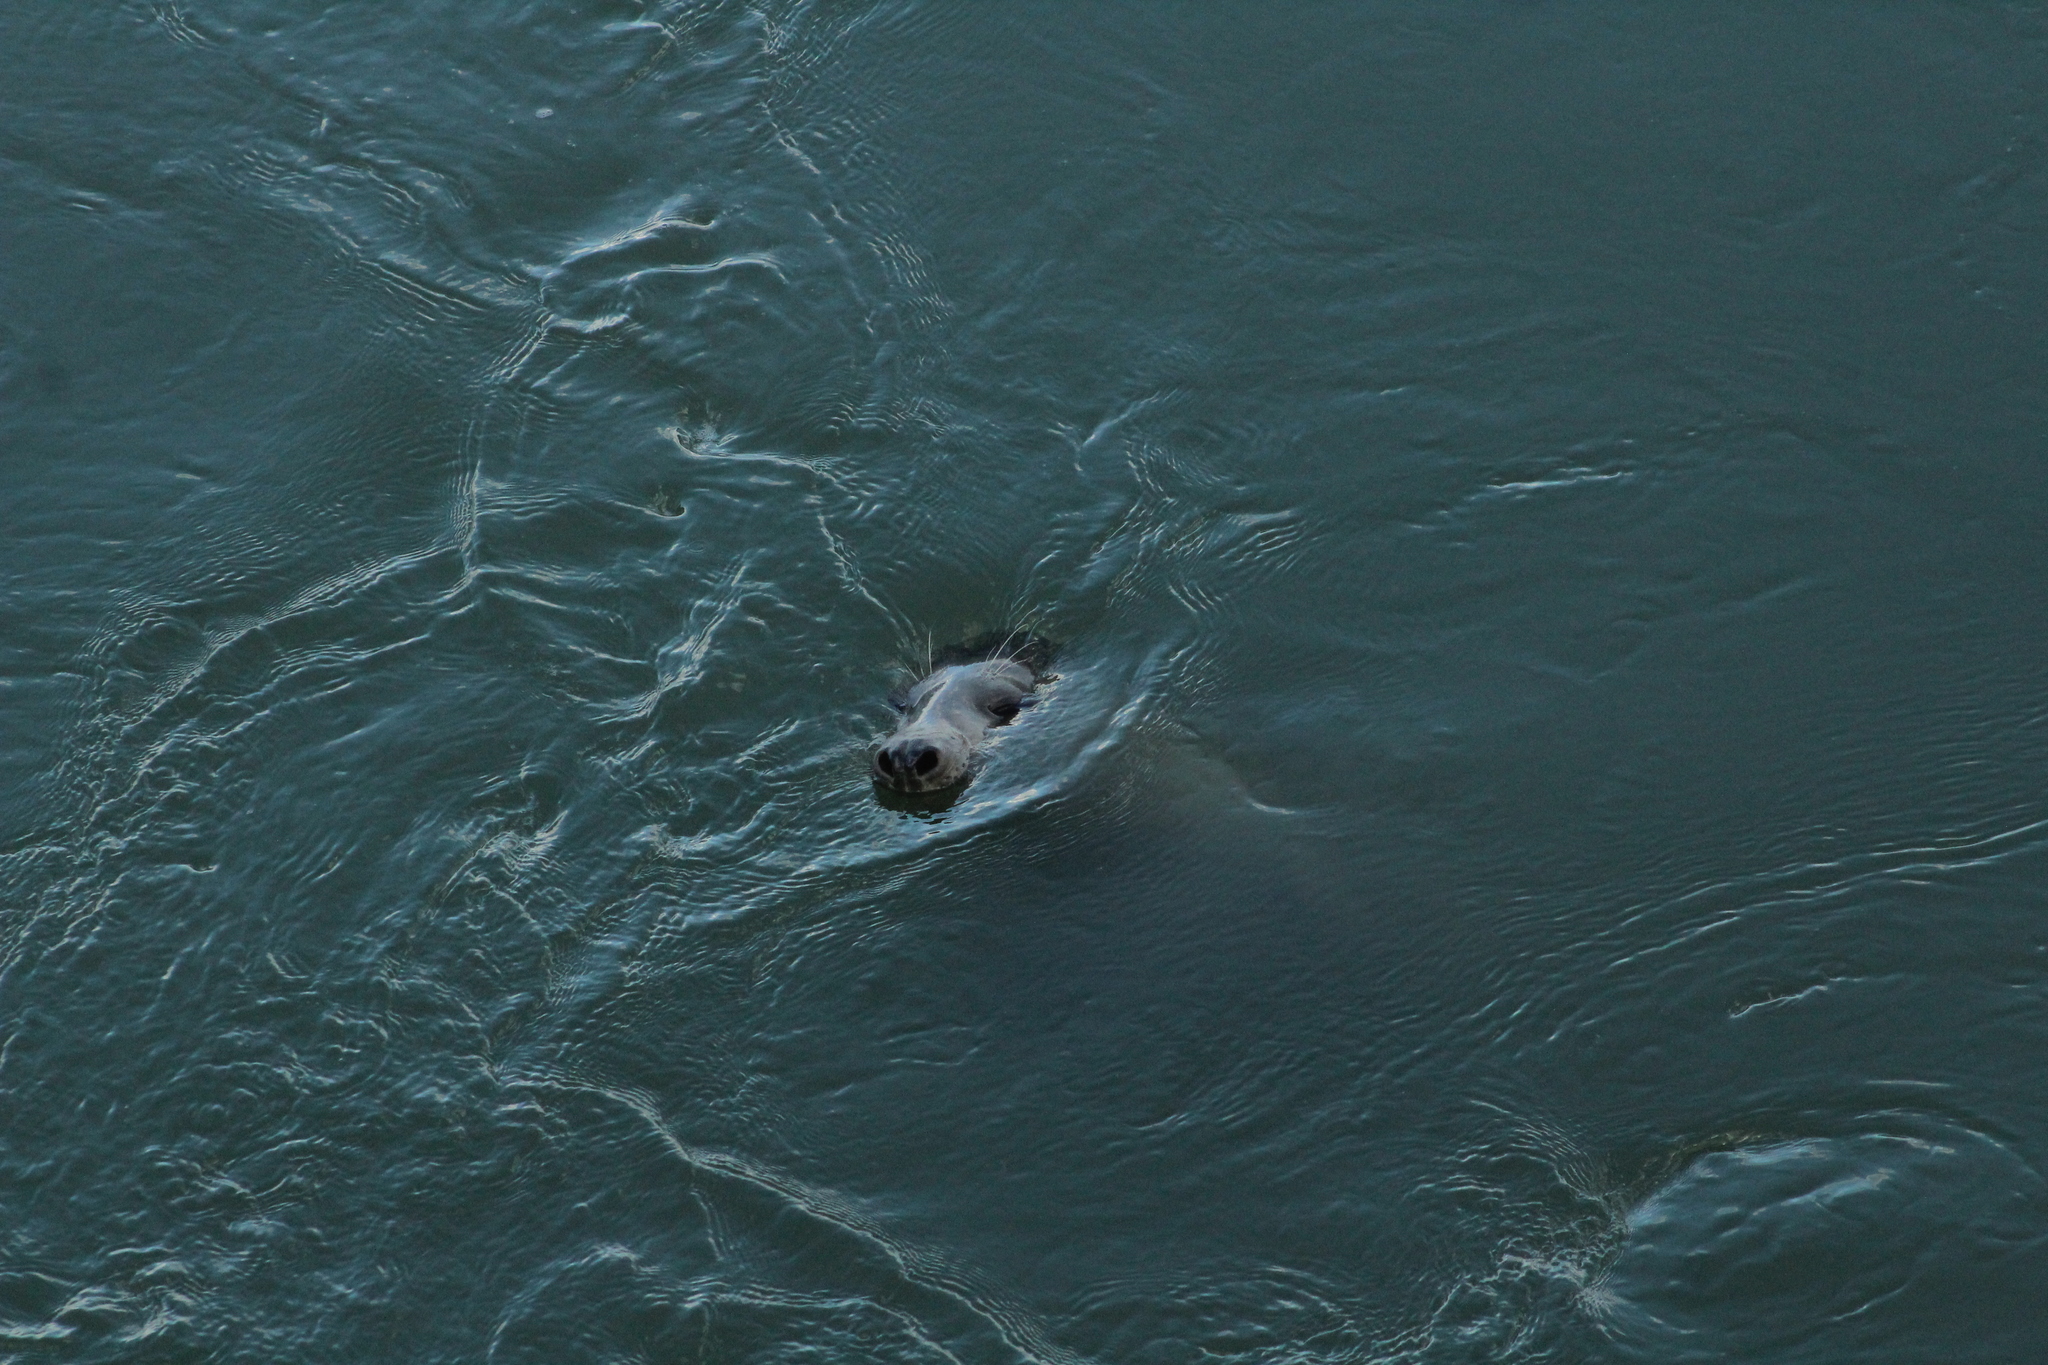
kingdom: Animalia
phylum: Chordata
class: Mammalia
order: Carnivora
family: Phocidae
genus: Halichoerus
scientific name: Halichoerus grypus
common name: Grey seal
